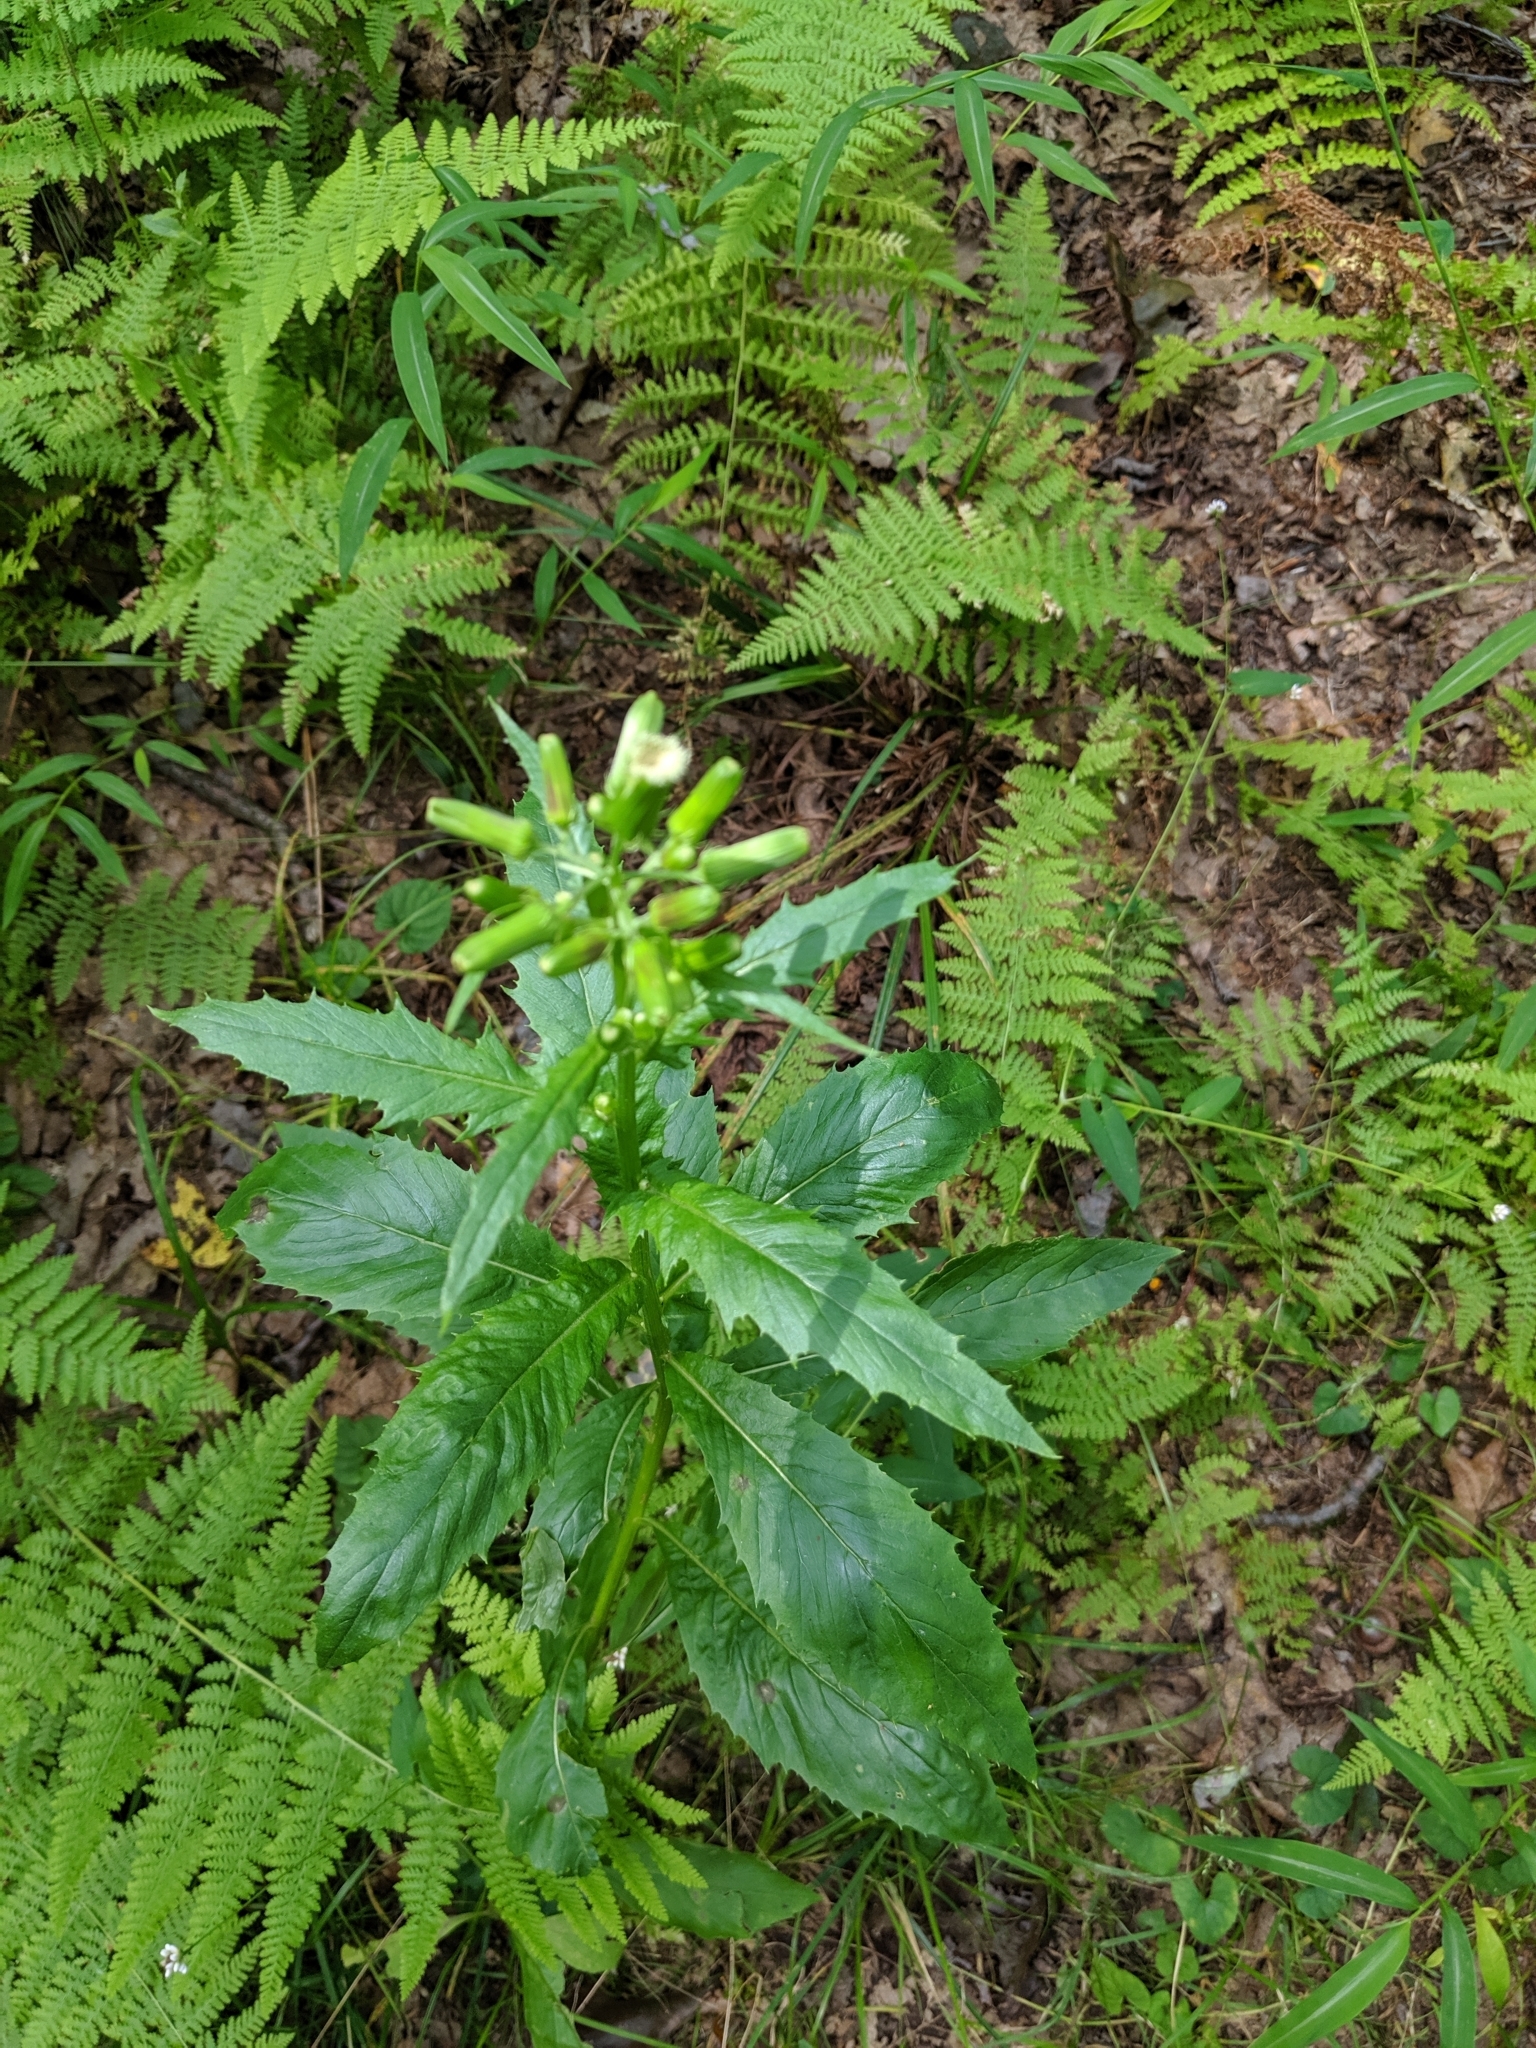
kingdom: Plantae
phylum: Tracheophyta
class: Magnoliopsida
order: Asterales
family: Asteraceae
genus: Erechtites
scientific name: Erechtites hieraciifolius
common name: American burnweed
